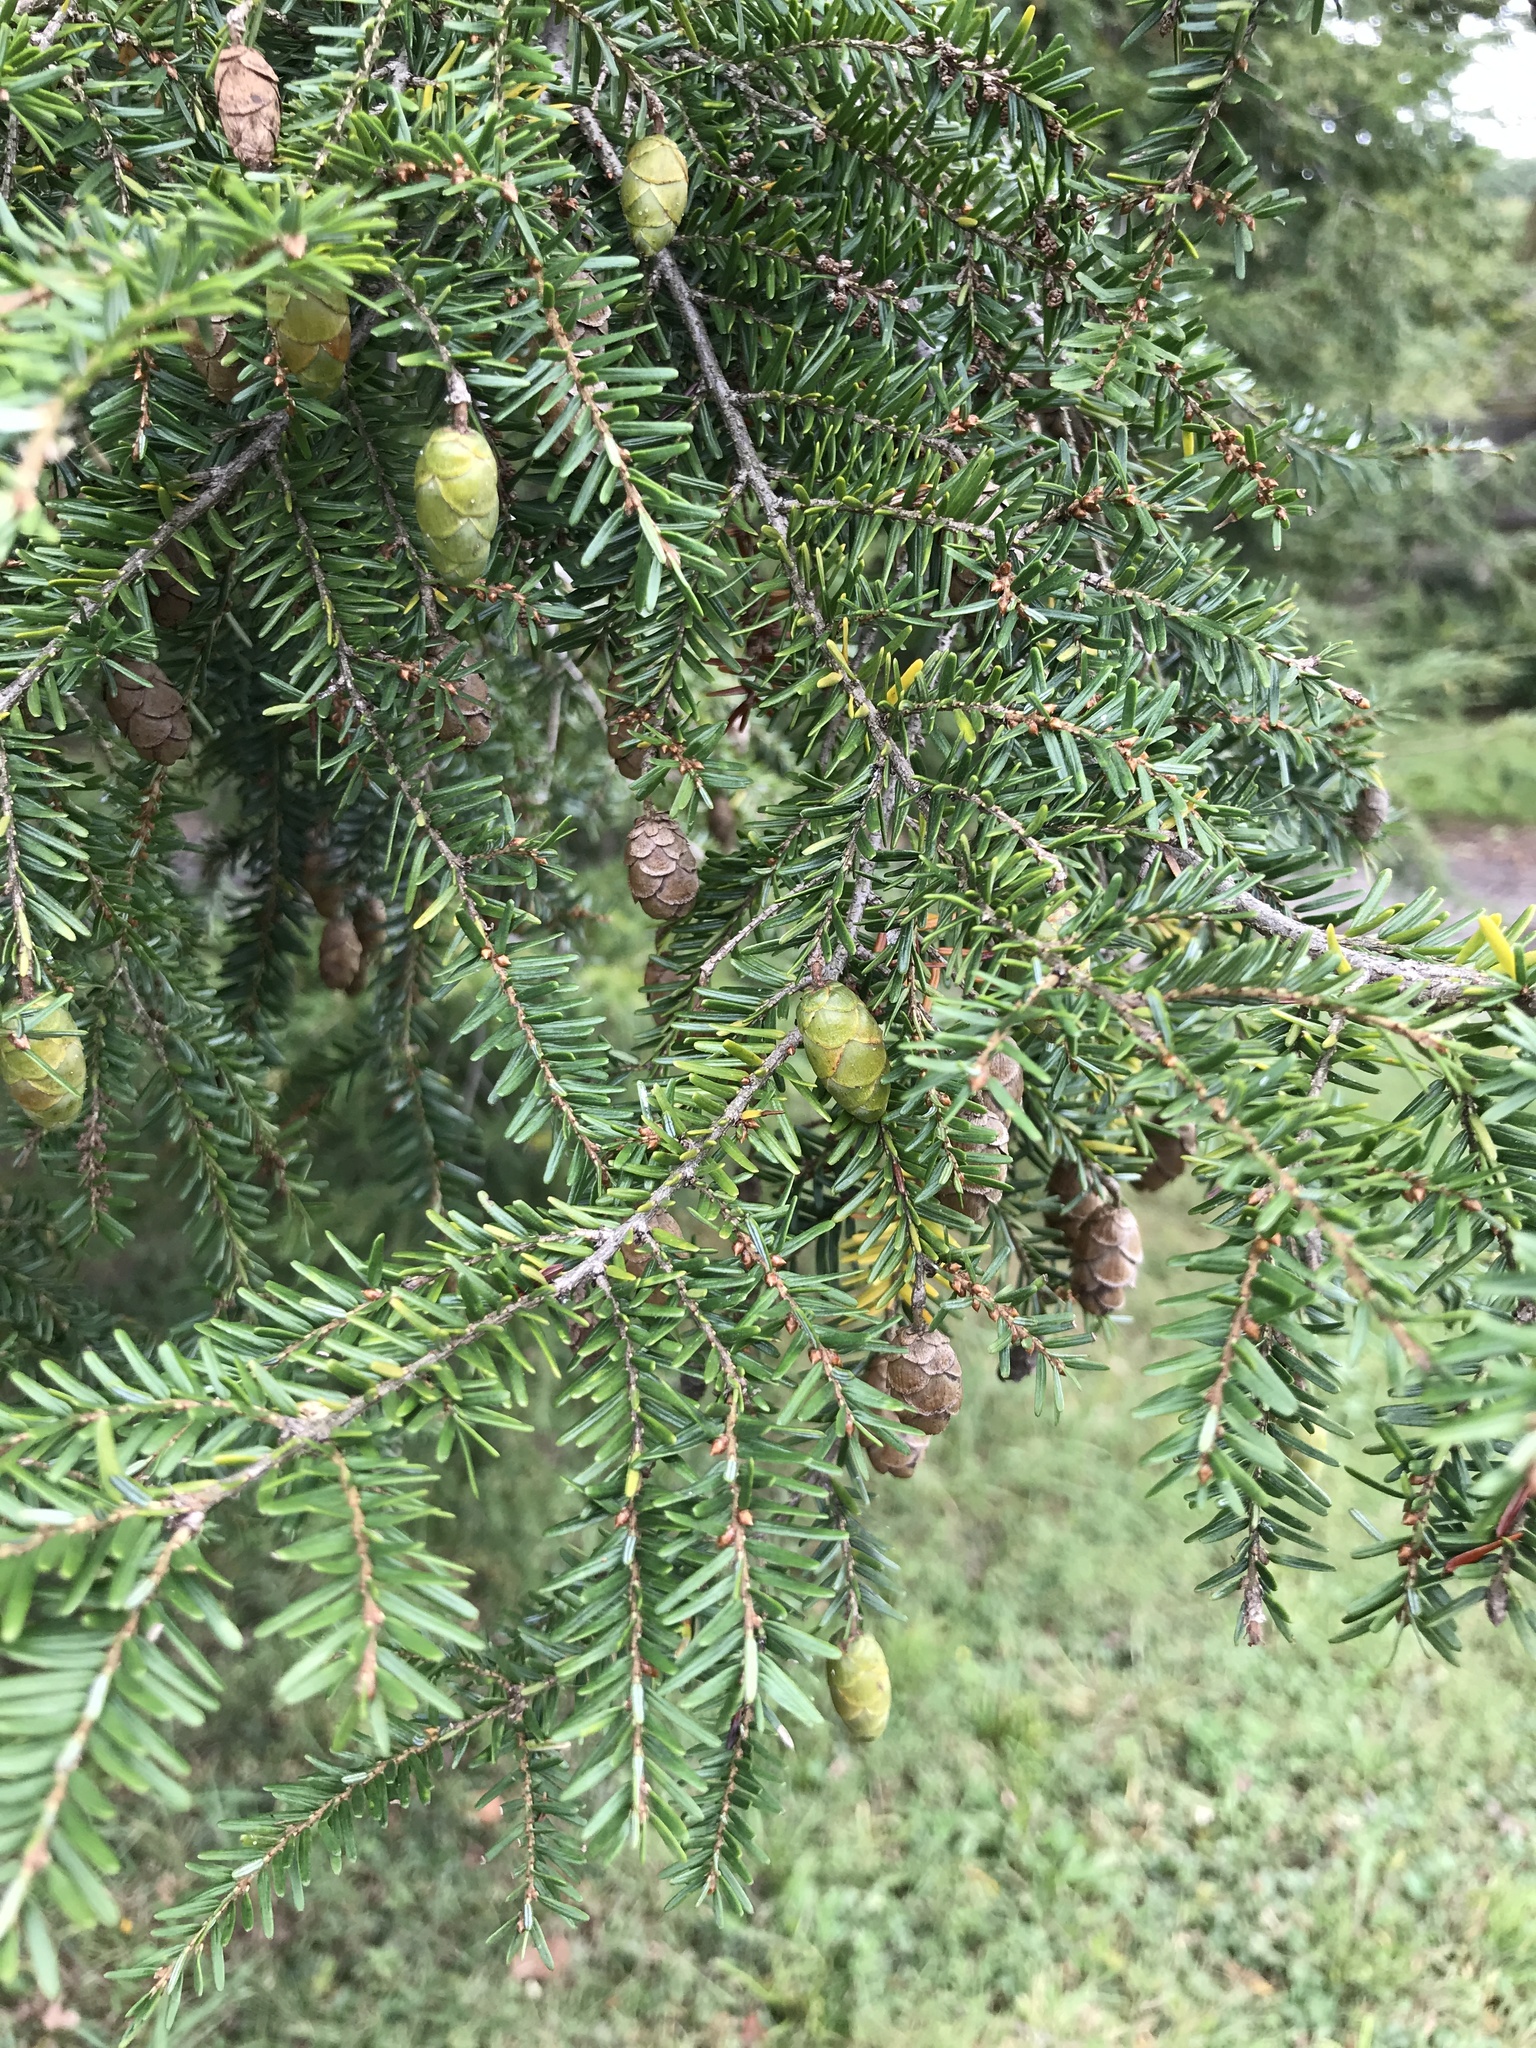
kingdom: Plantae
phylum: Tracheophyta
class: Pinopsida
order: Pinales
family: Pinaceae
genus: Tsuga
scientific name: Tsuga canadensis
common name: Eastern hemlock
